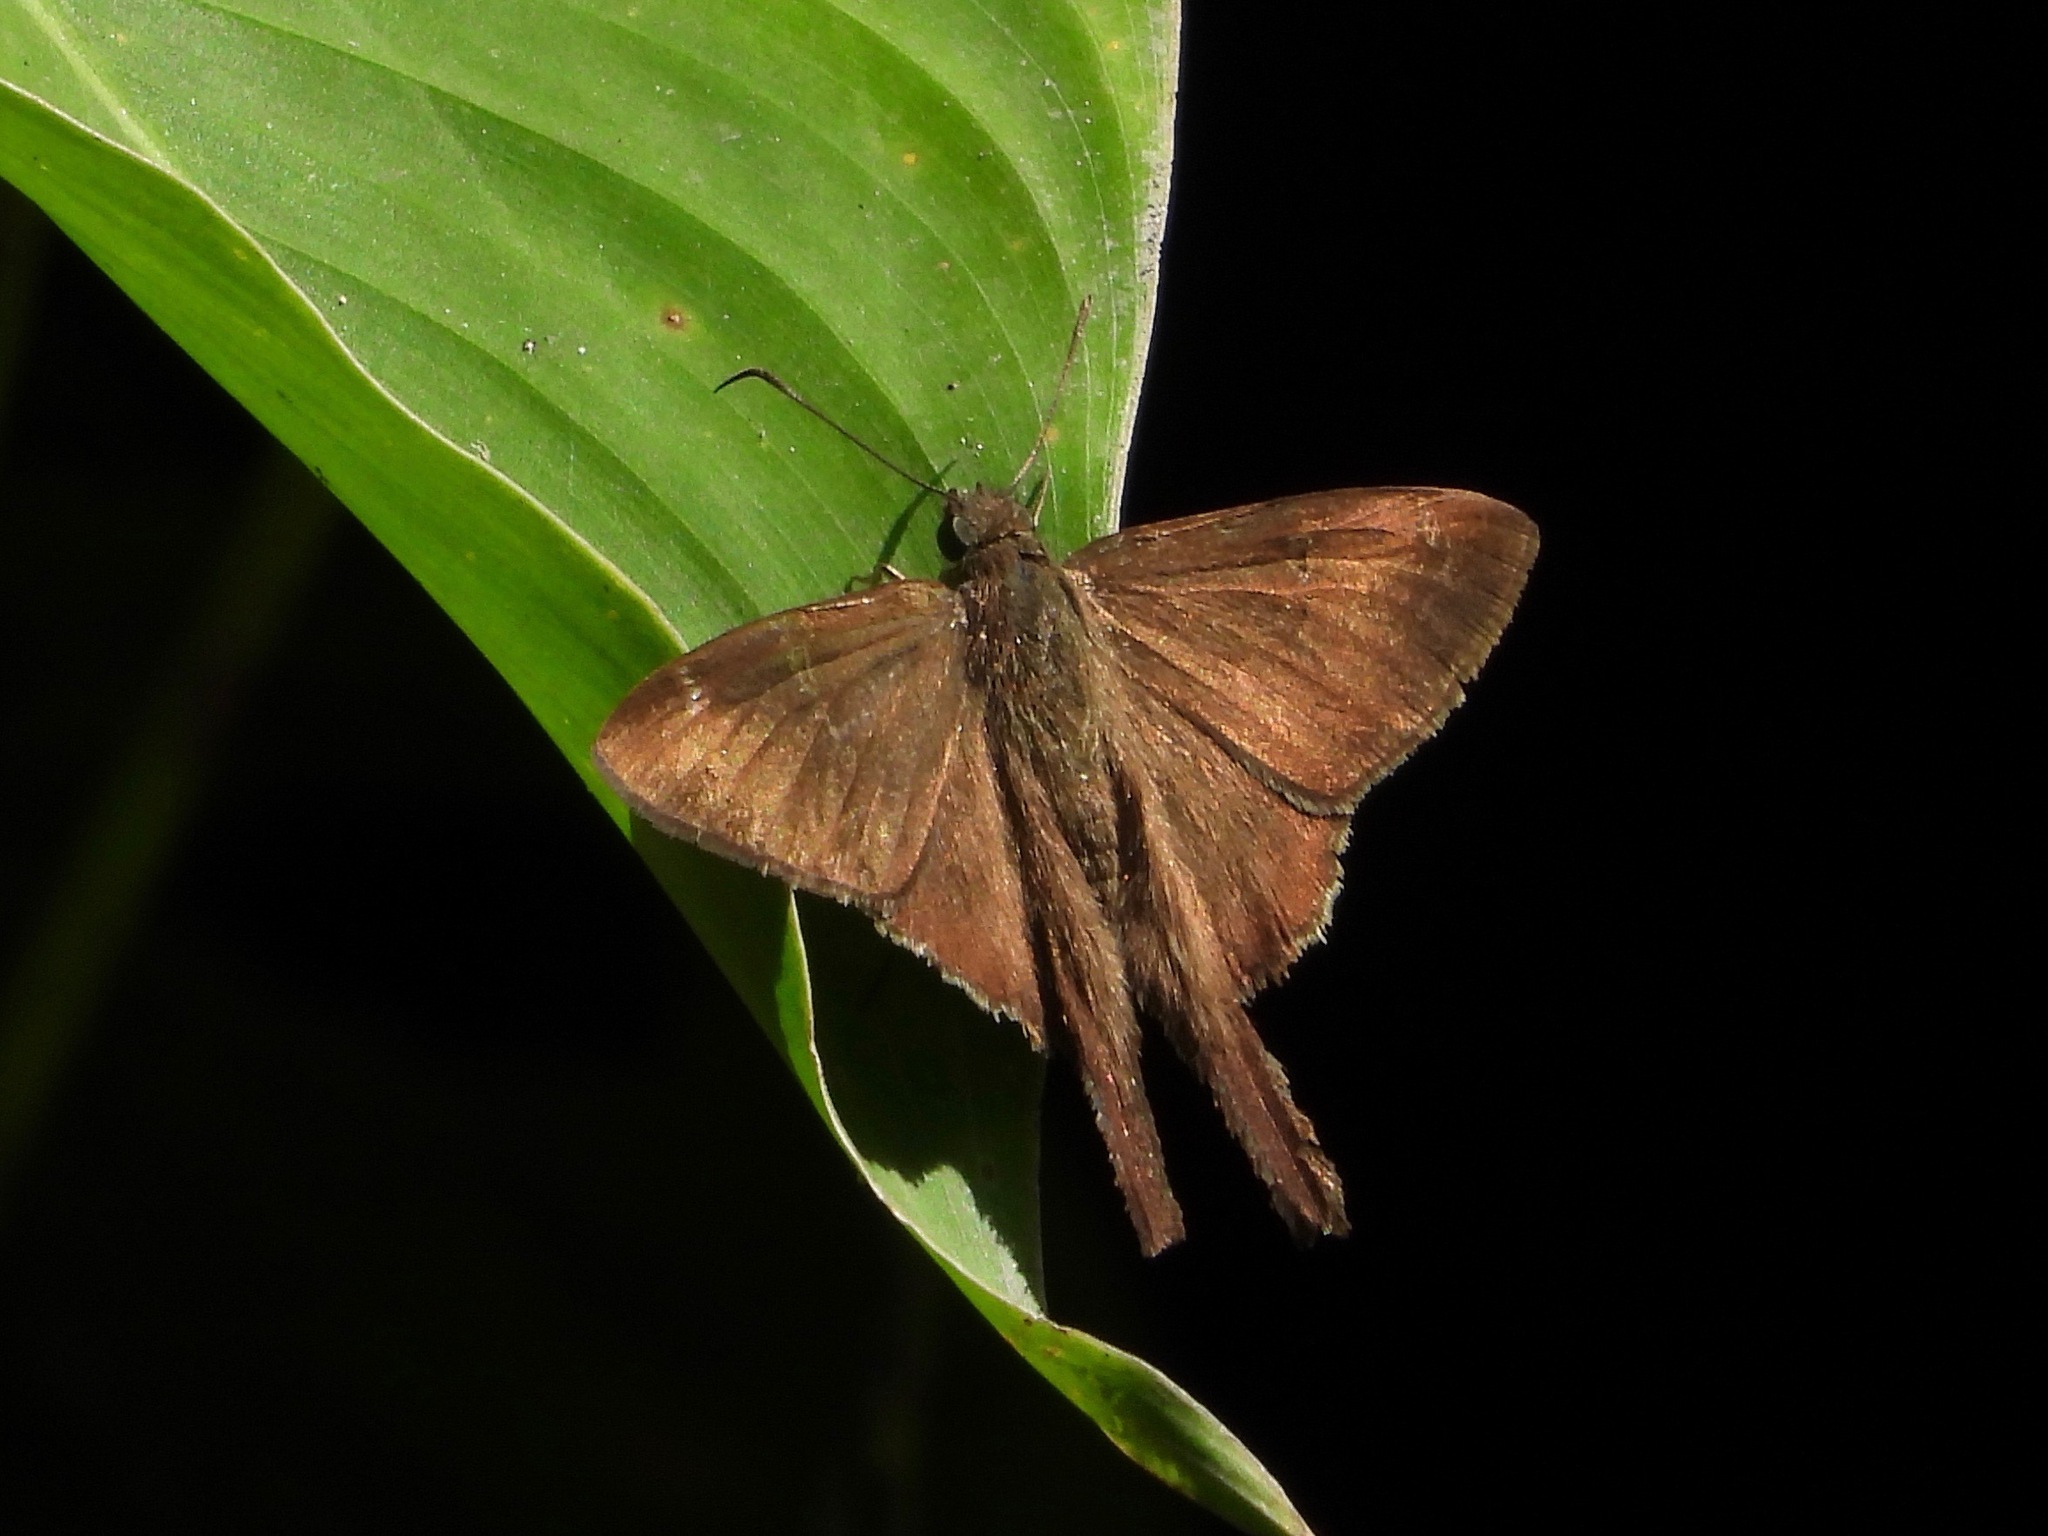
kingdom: Animalia
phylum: Arthropoda
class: Insecta
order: Lepidoptera
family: Hesperiidae
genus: Urbanus
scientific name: Urbanus simplicius
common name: Plain longtail
